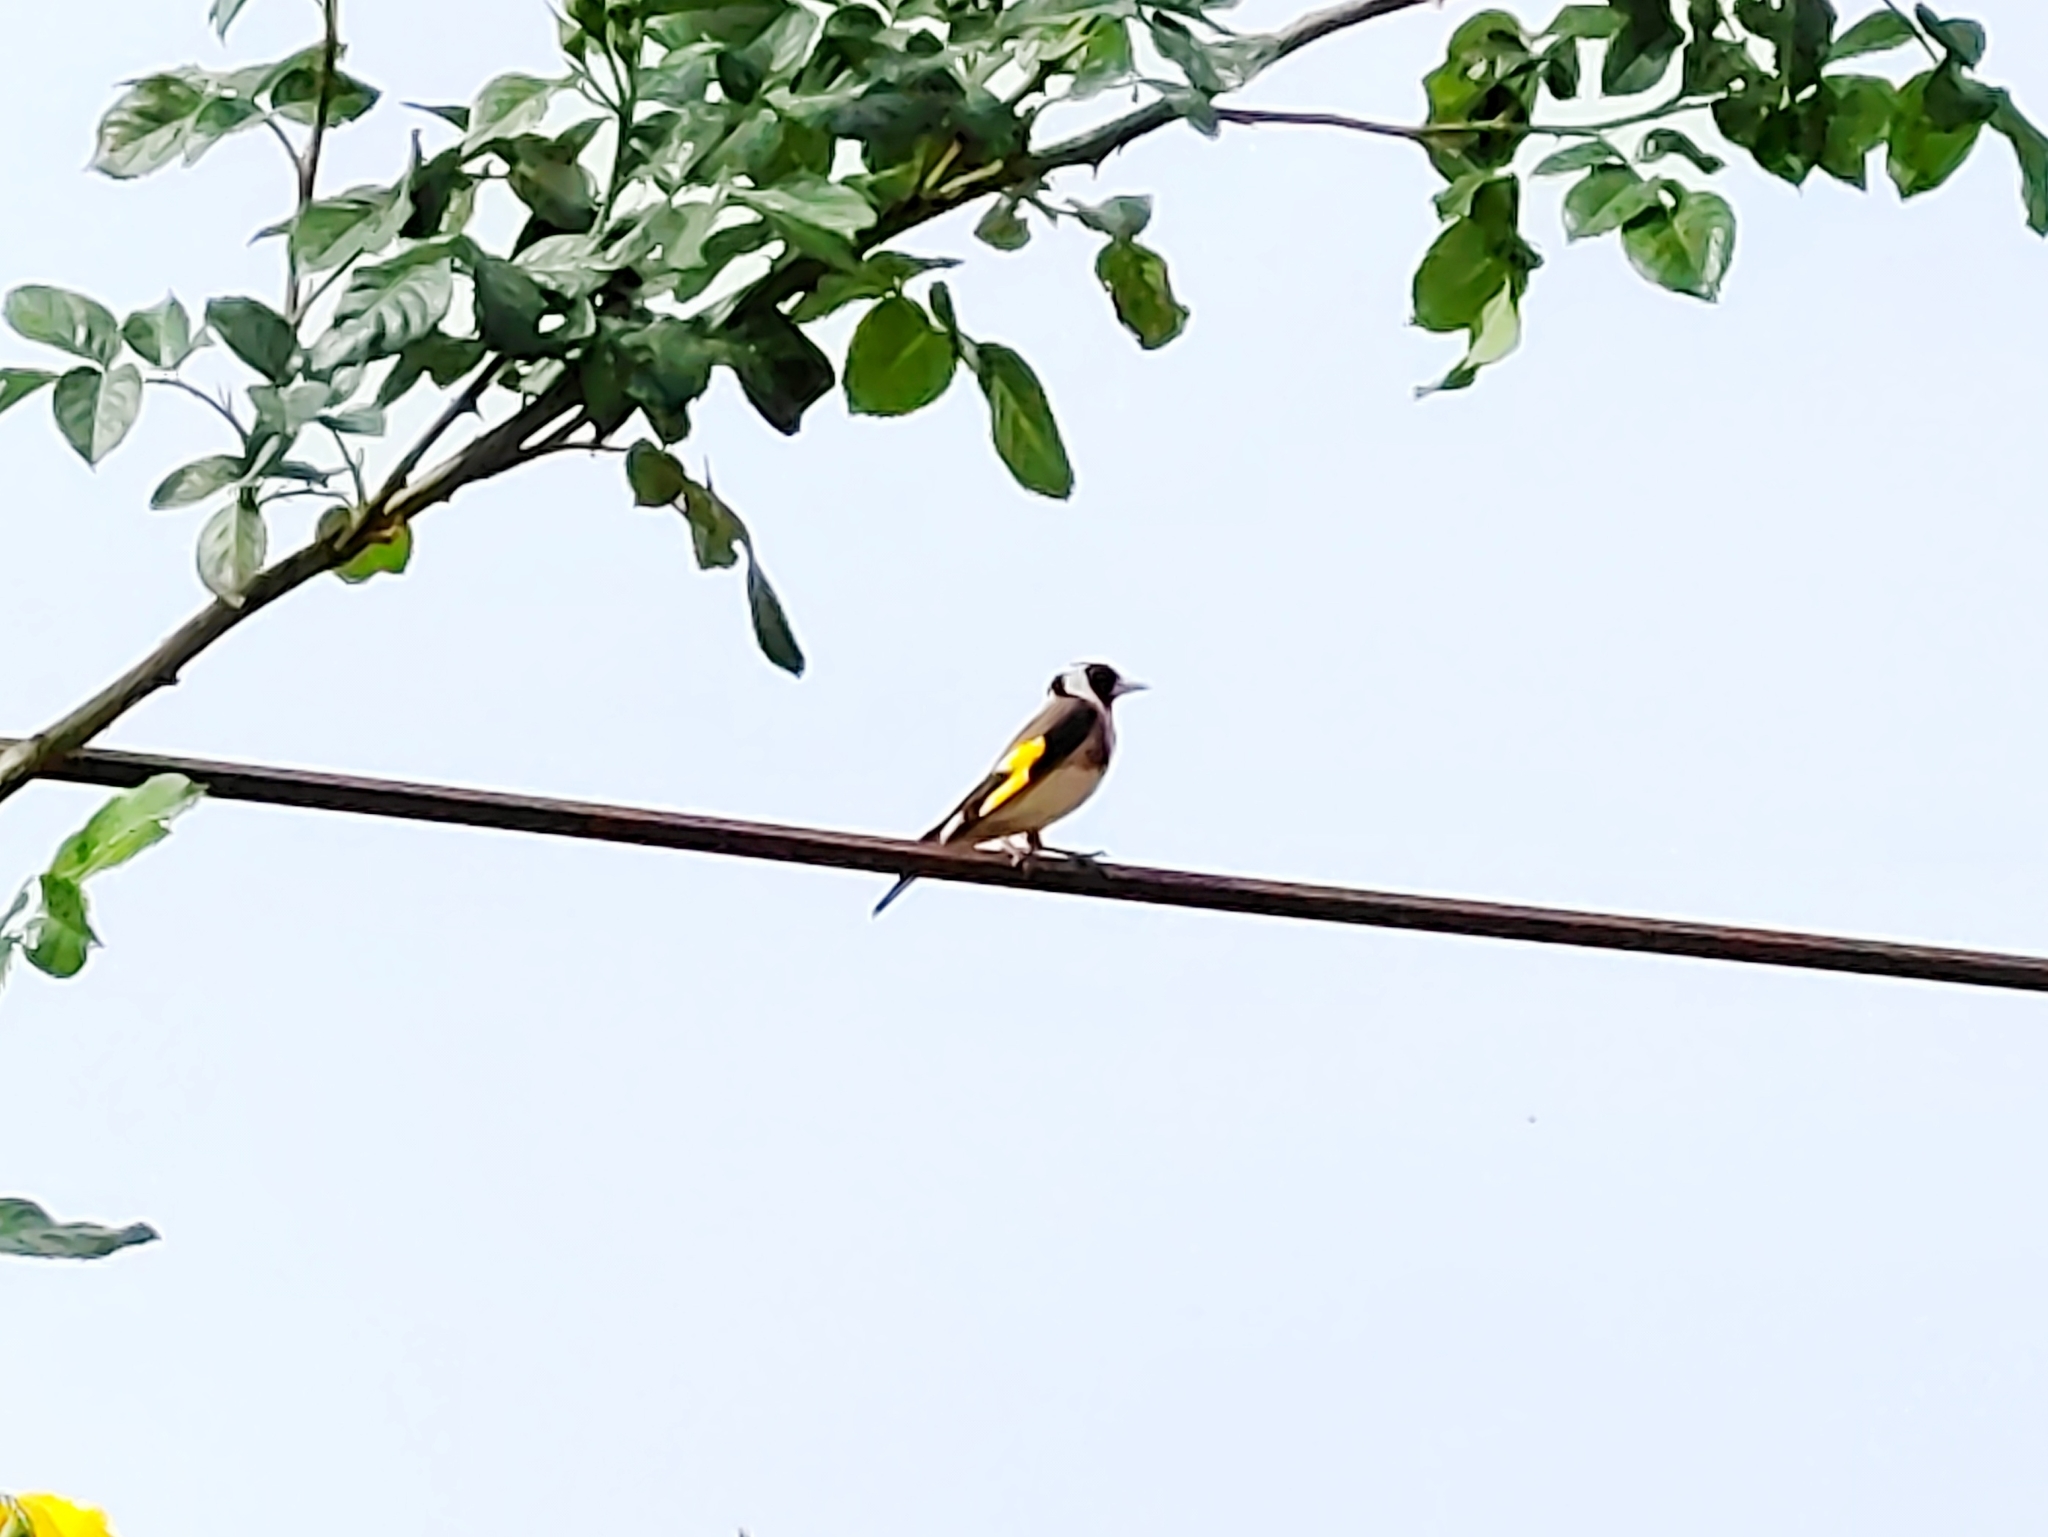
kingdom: Animalia
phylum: Chordata
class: Aves
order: Passeriformes
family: Fringillidae
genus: Carduelis
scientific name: Carduelis carduelis
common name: European goldfinch
